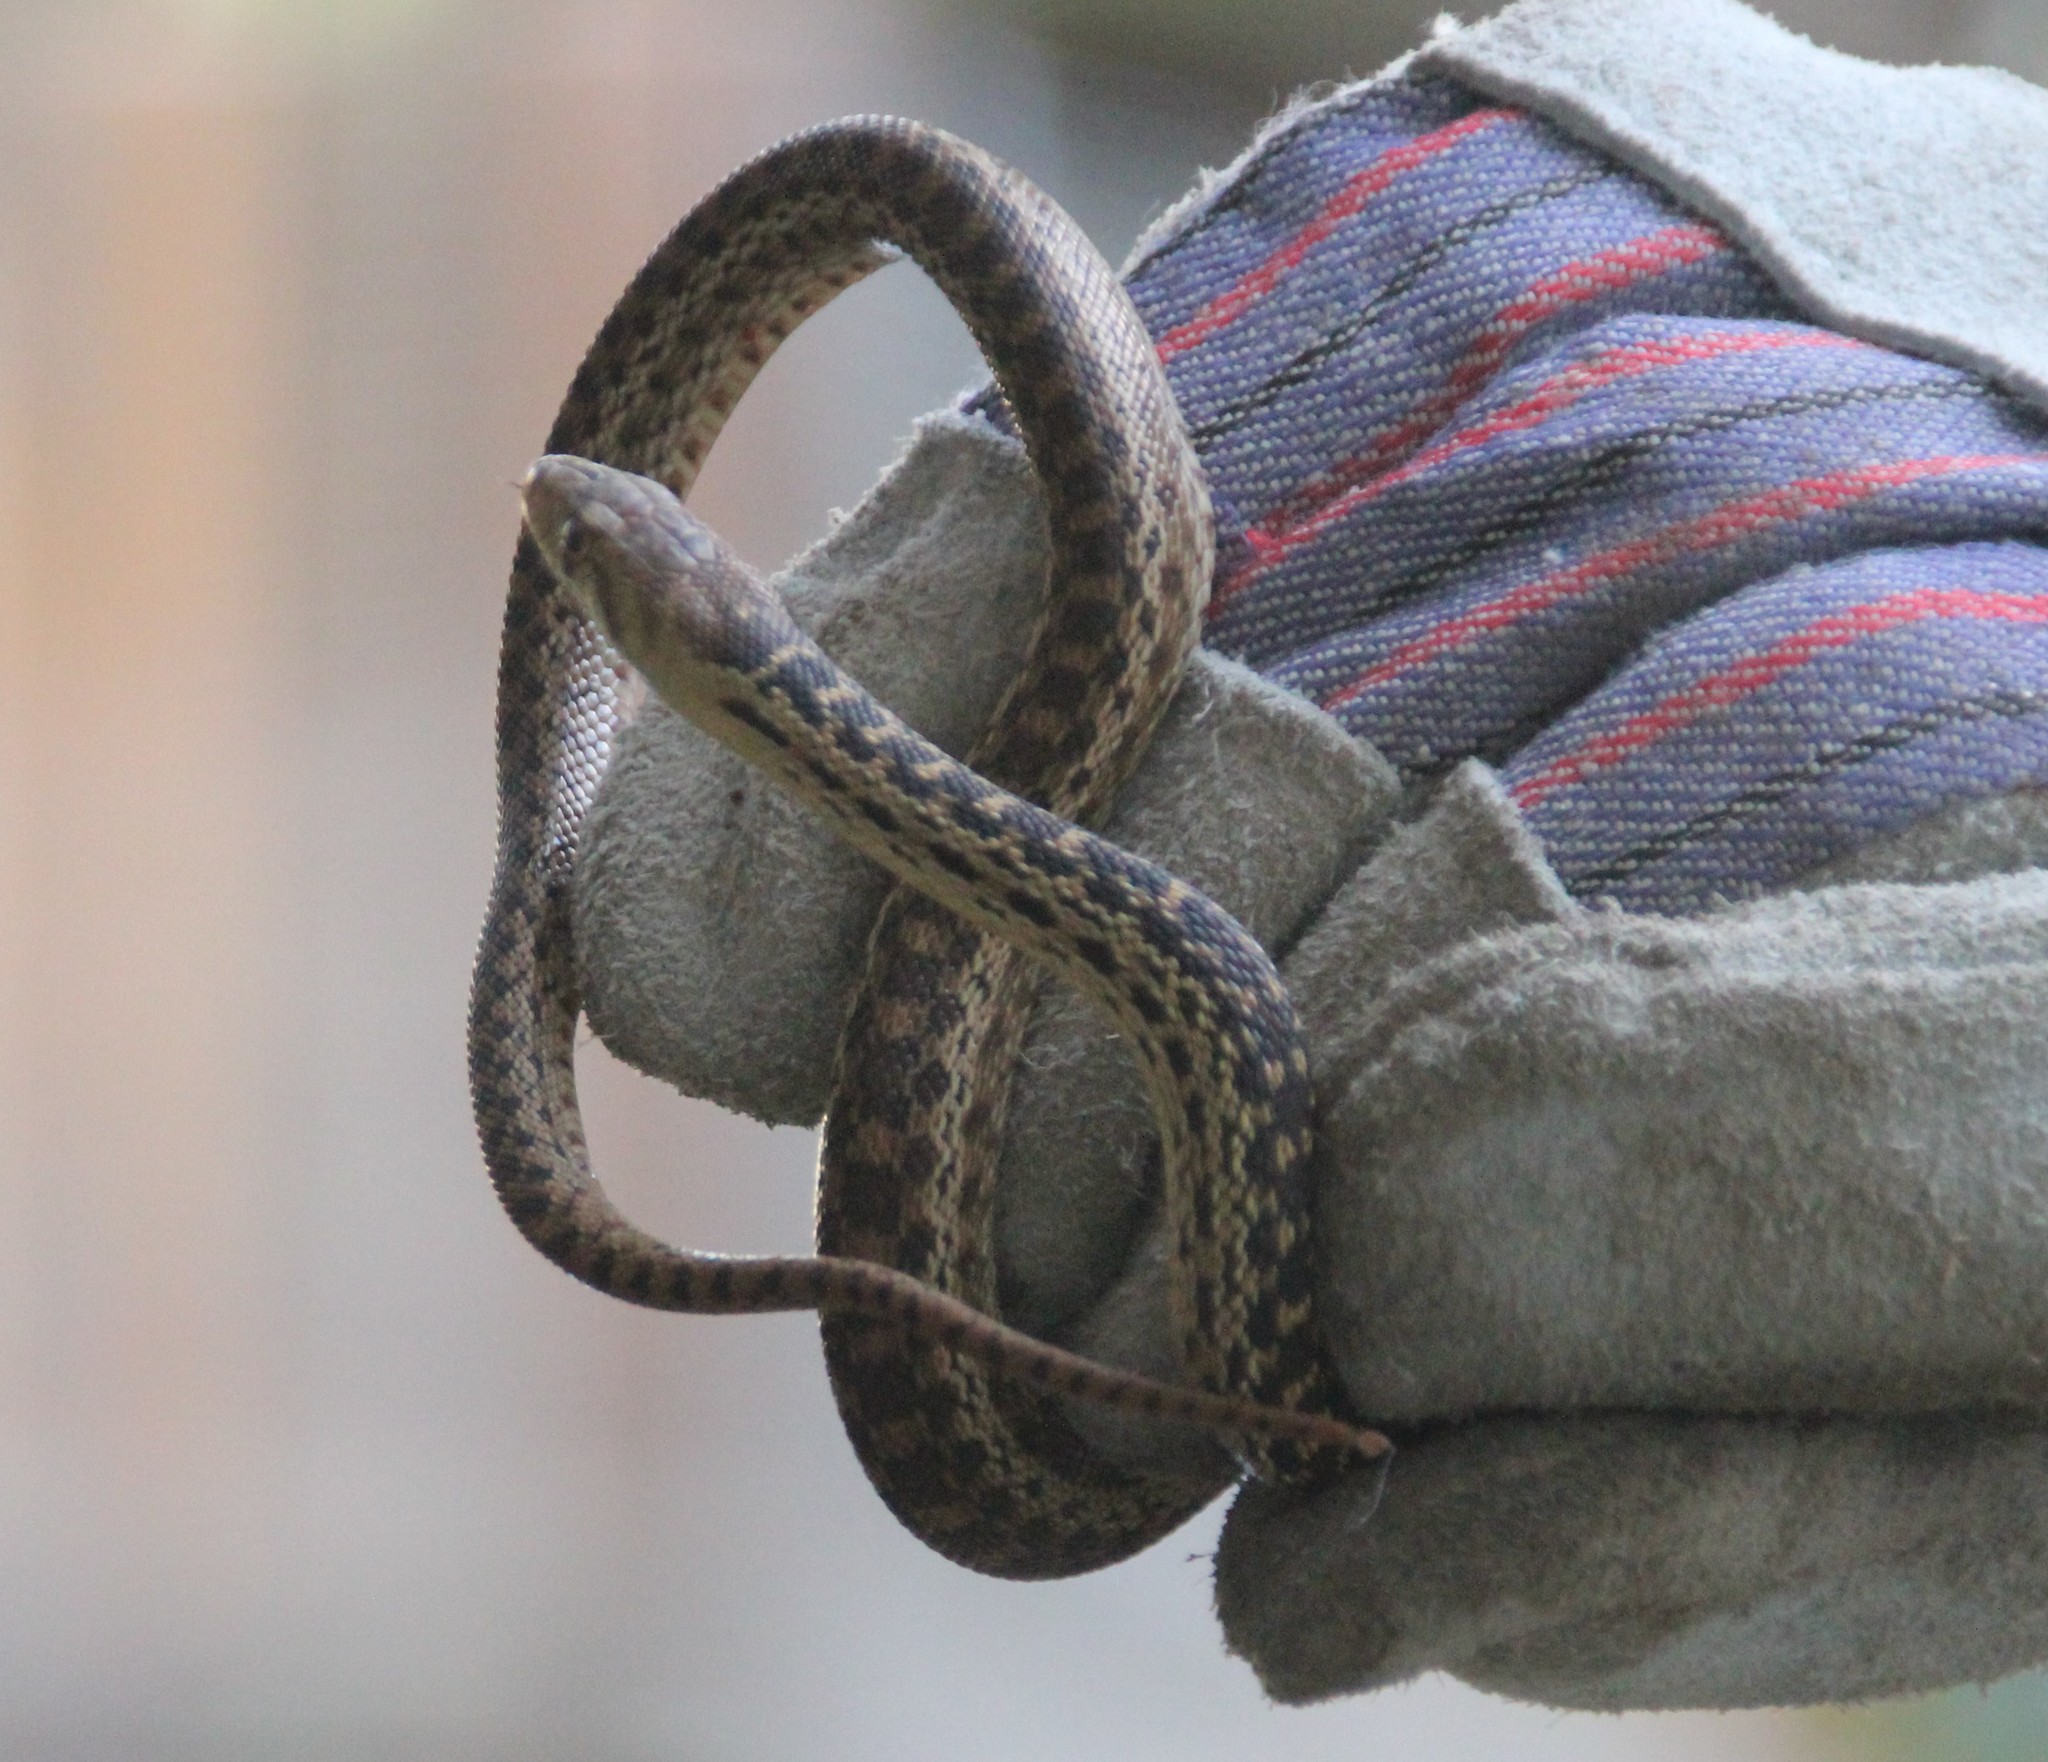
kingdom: Animalia
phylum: Chordata
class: Squamata
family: Colubridae
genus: Pituophis
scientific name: Pituophis catenifer
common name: Gopher snake
